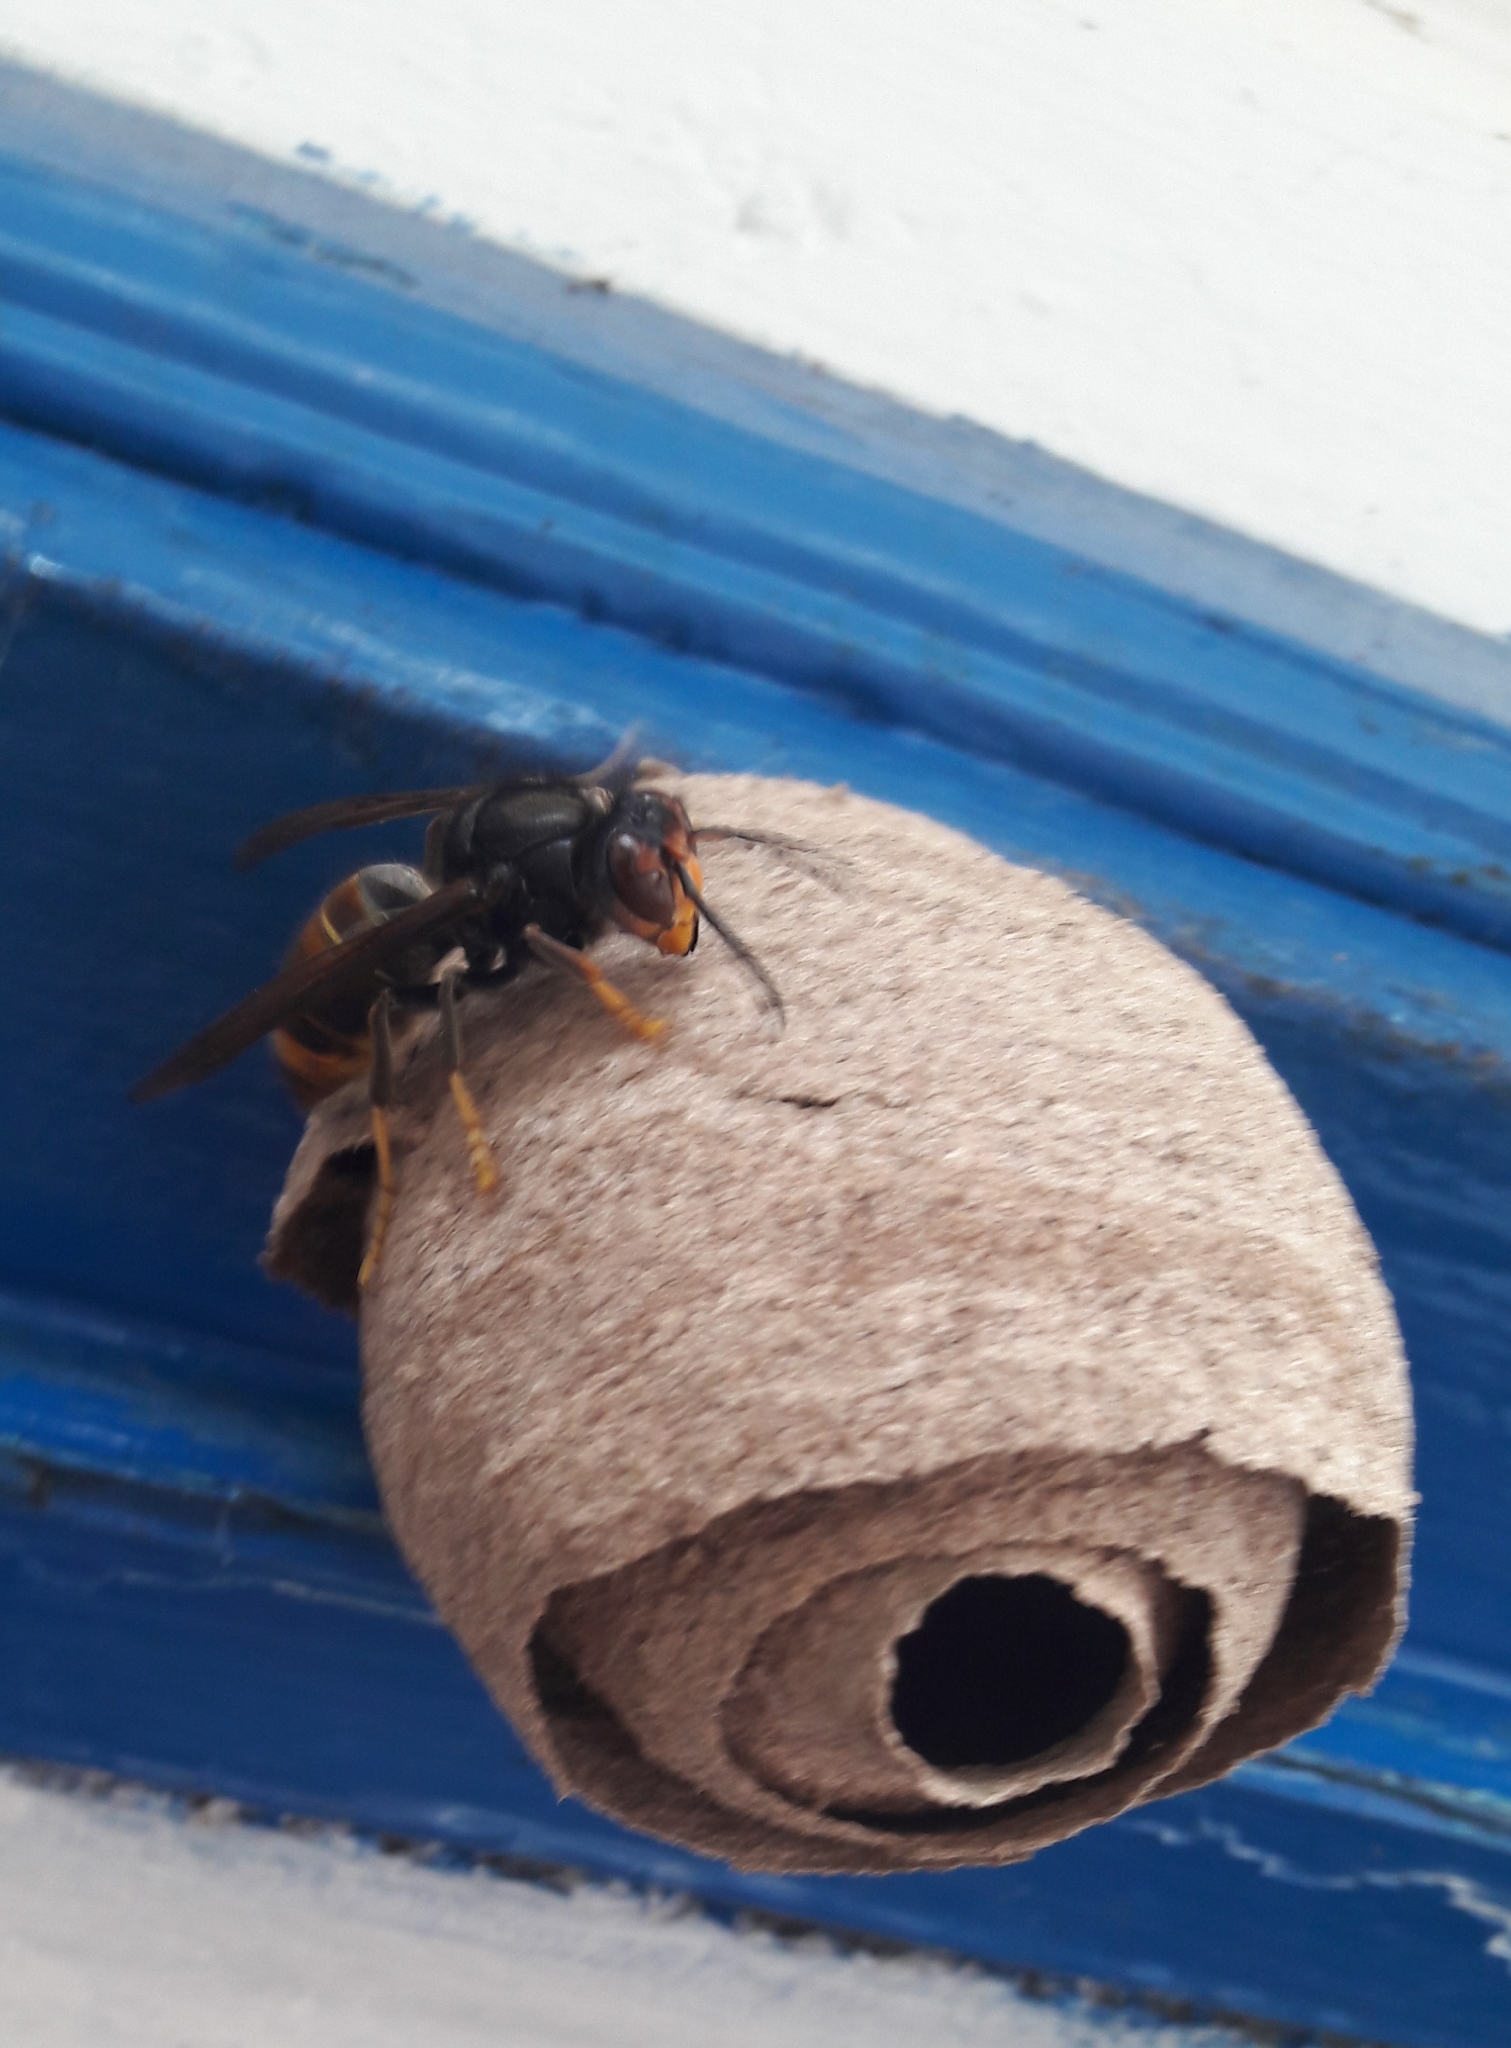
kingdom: Animalia
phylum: Arthropoda
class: Insecta
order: Hymenoptera
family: Vespidae
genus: Vespa
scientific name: Vespa velutina
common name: Asian hornet
